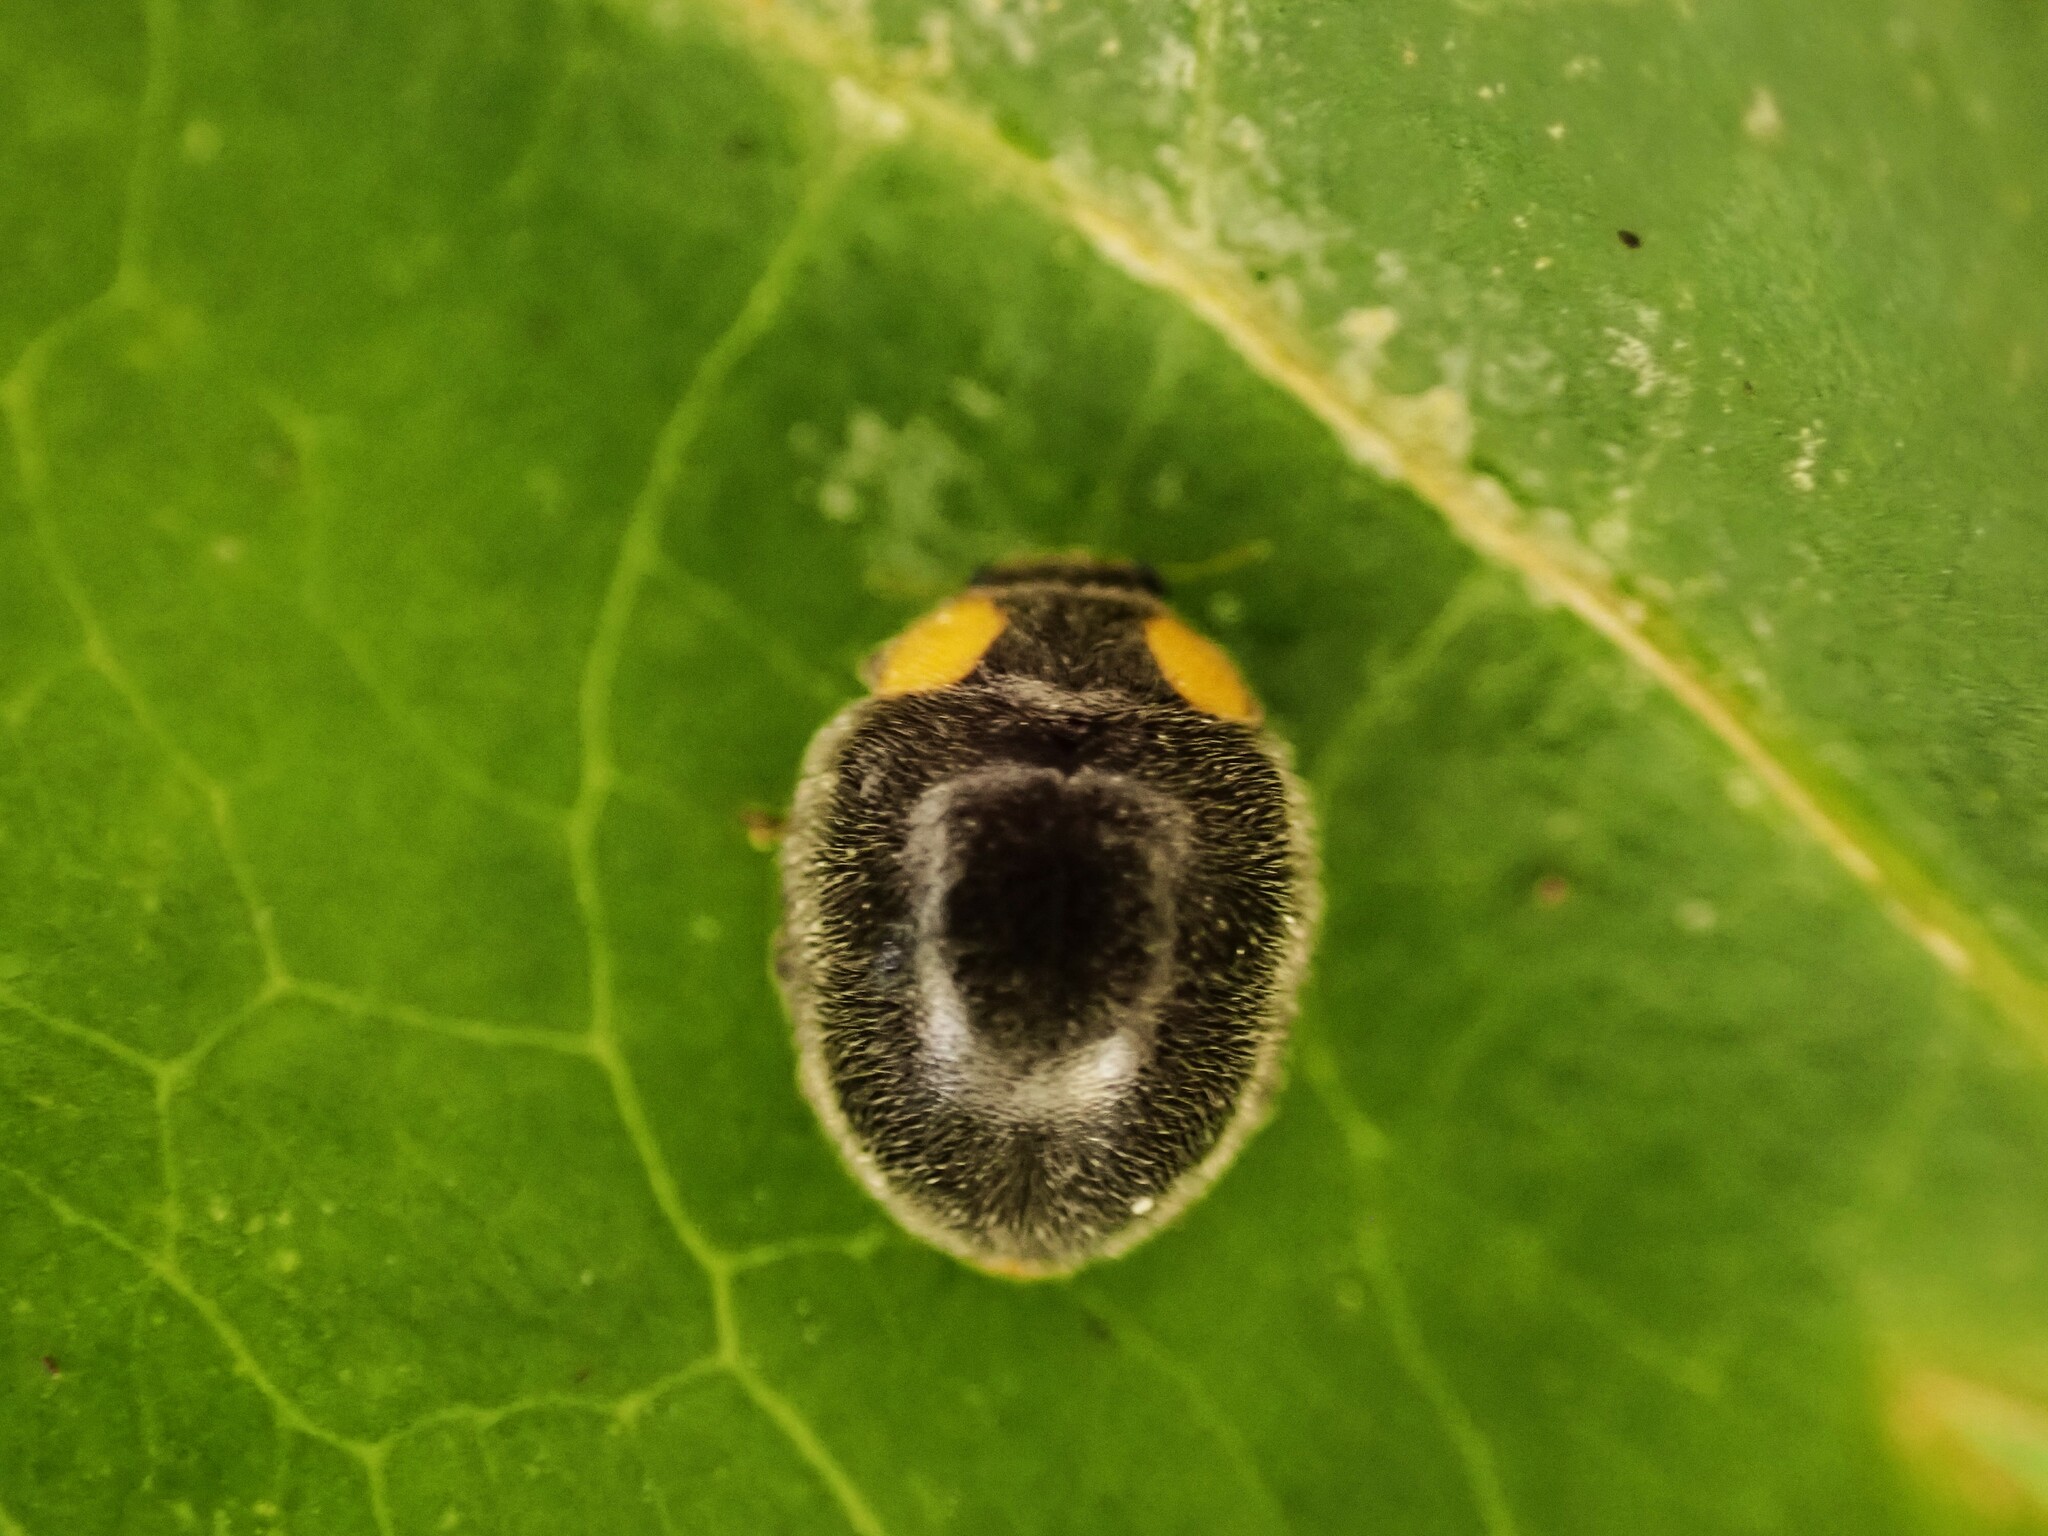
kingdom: Animalia
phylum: Arthropoda
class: Insecta
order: Coleoptera
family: Coccinellidae
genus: Scymnodes
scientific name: Scymnodes lividigaster
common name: Yellowshouldered lady beetle
